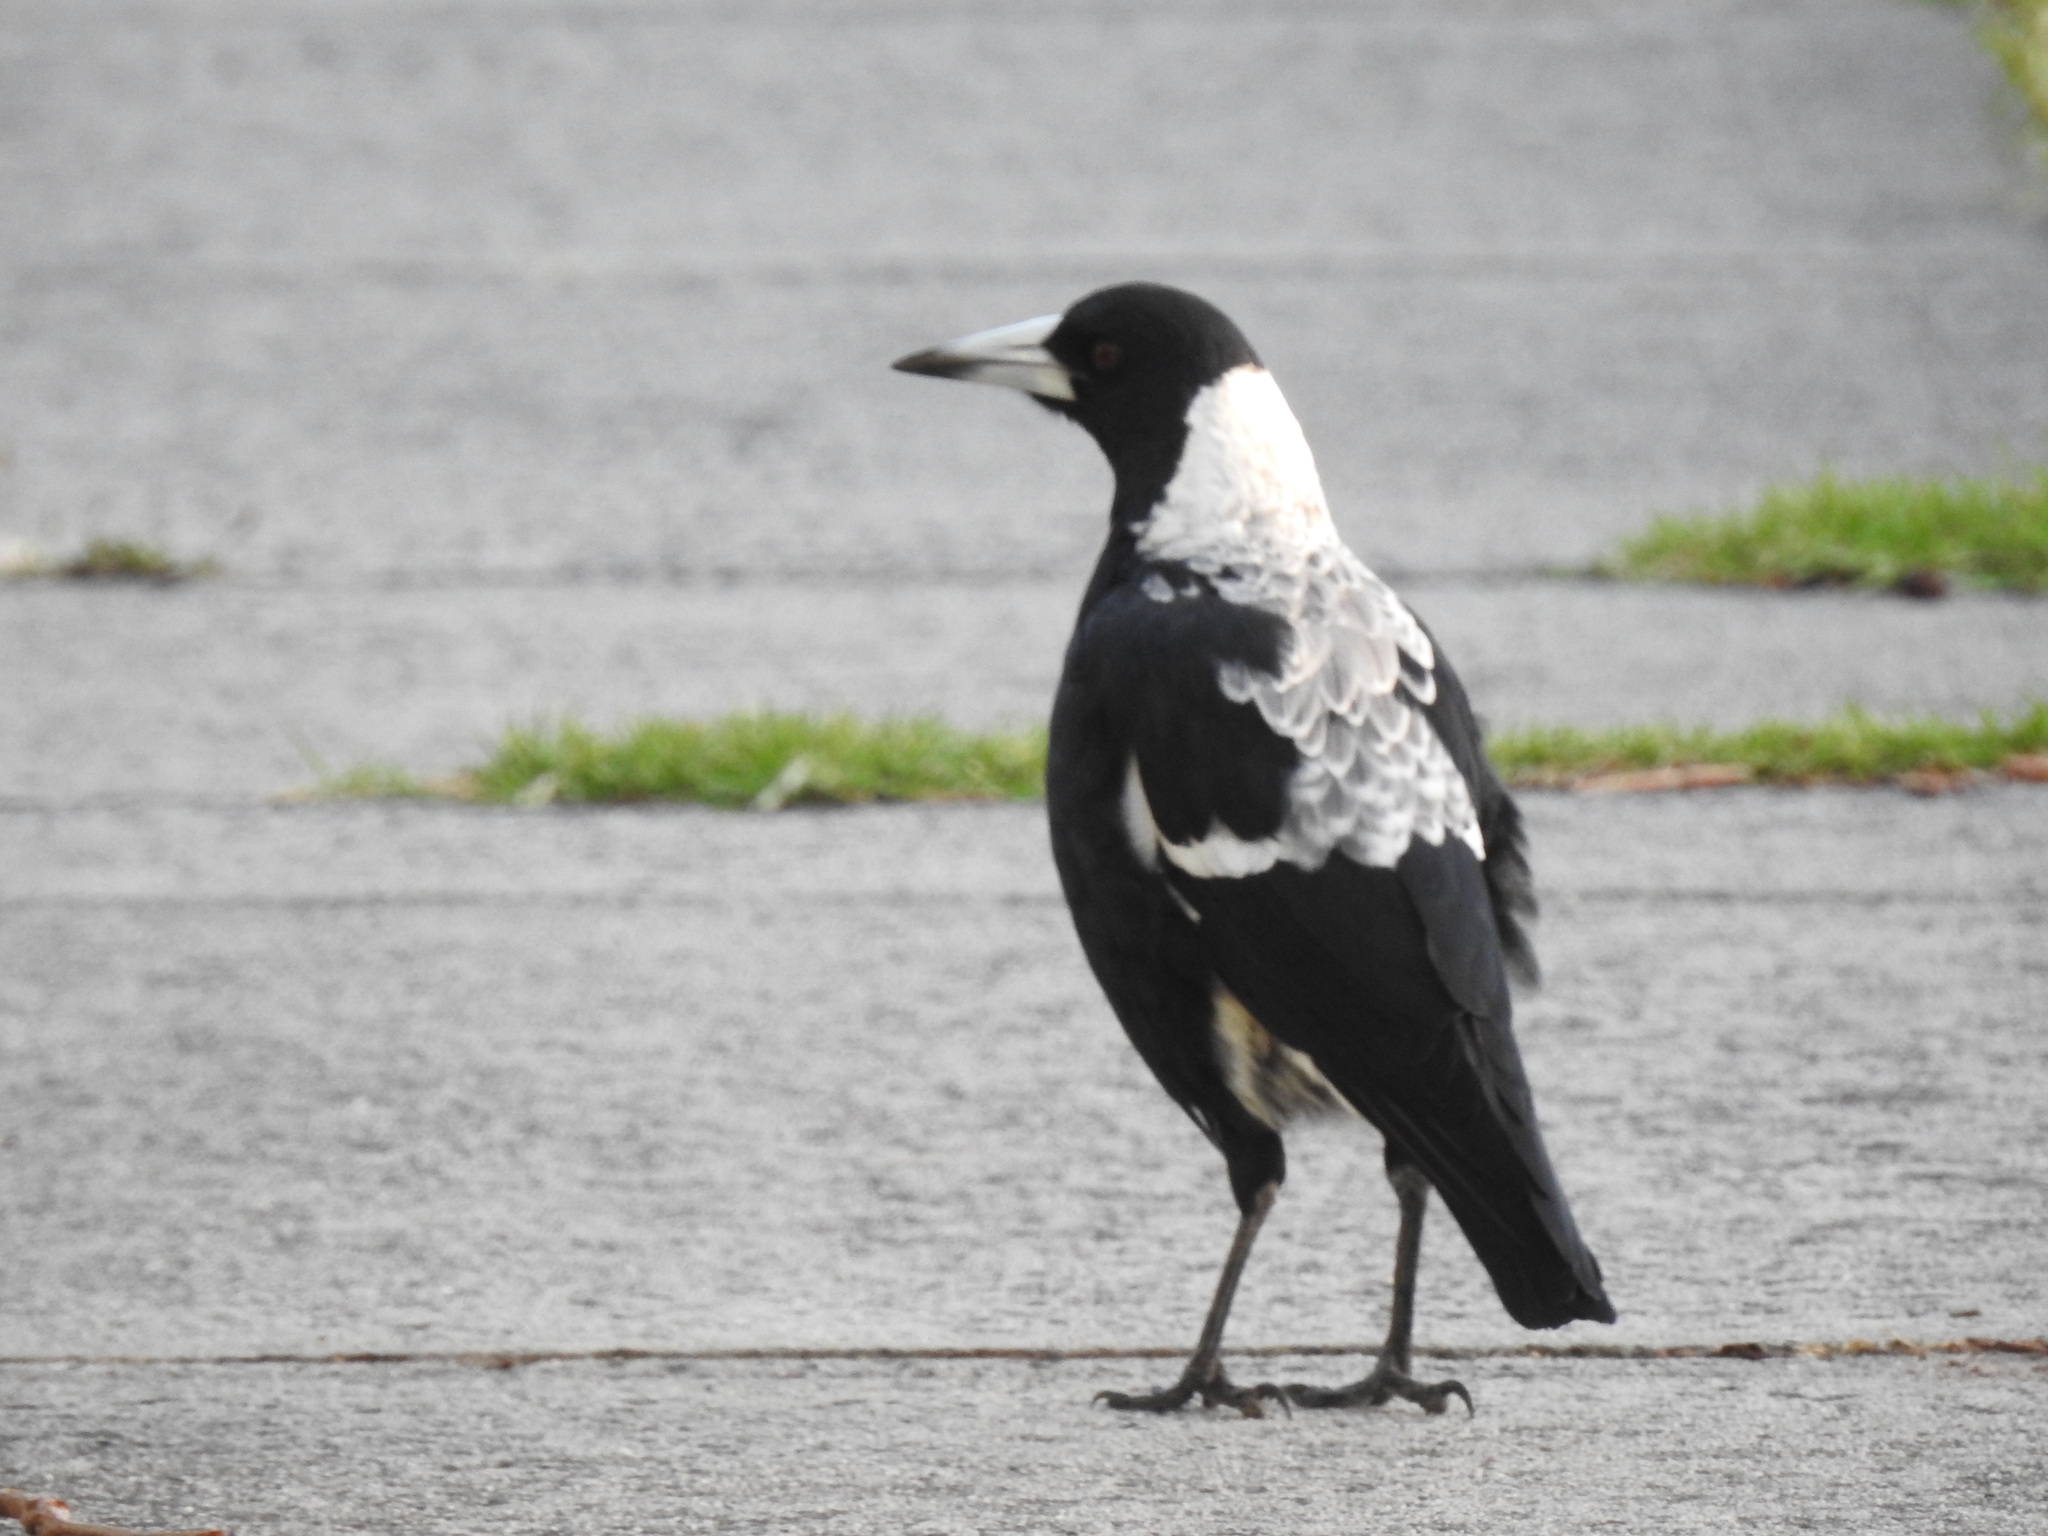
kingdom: Animalia
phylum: Chordata
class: Aves
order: Passeriformes
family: Cracticidae
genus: Gymnorhina
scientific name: Gymnorhina tibicen
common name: Australian magpie
